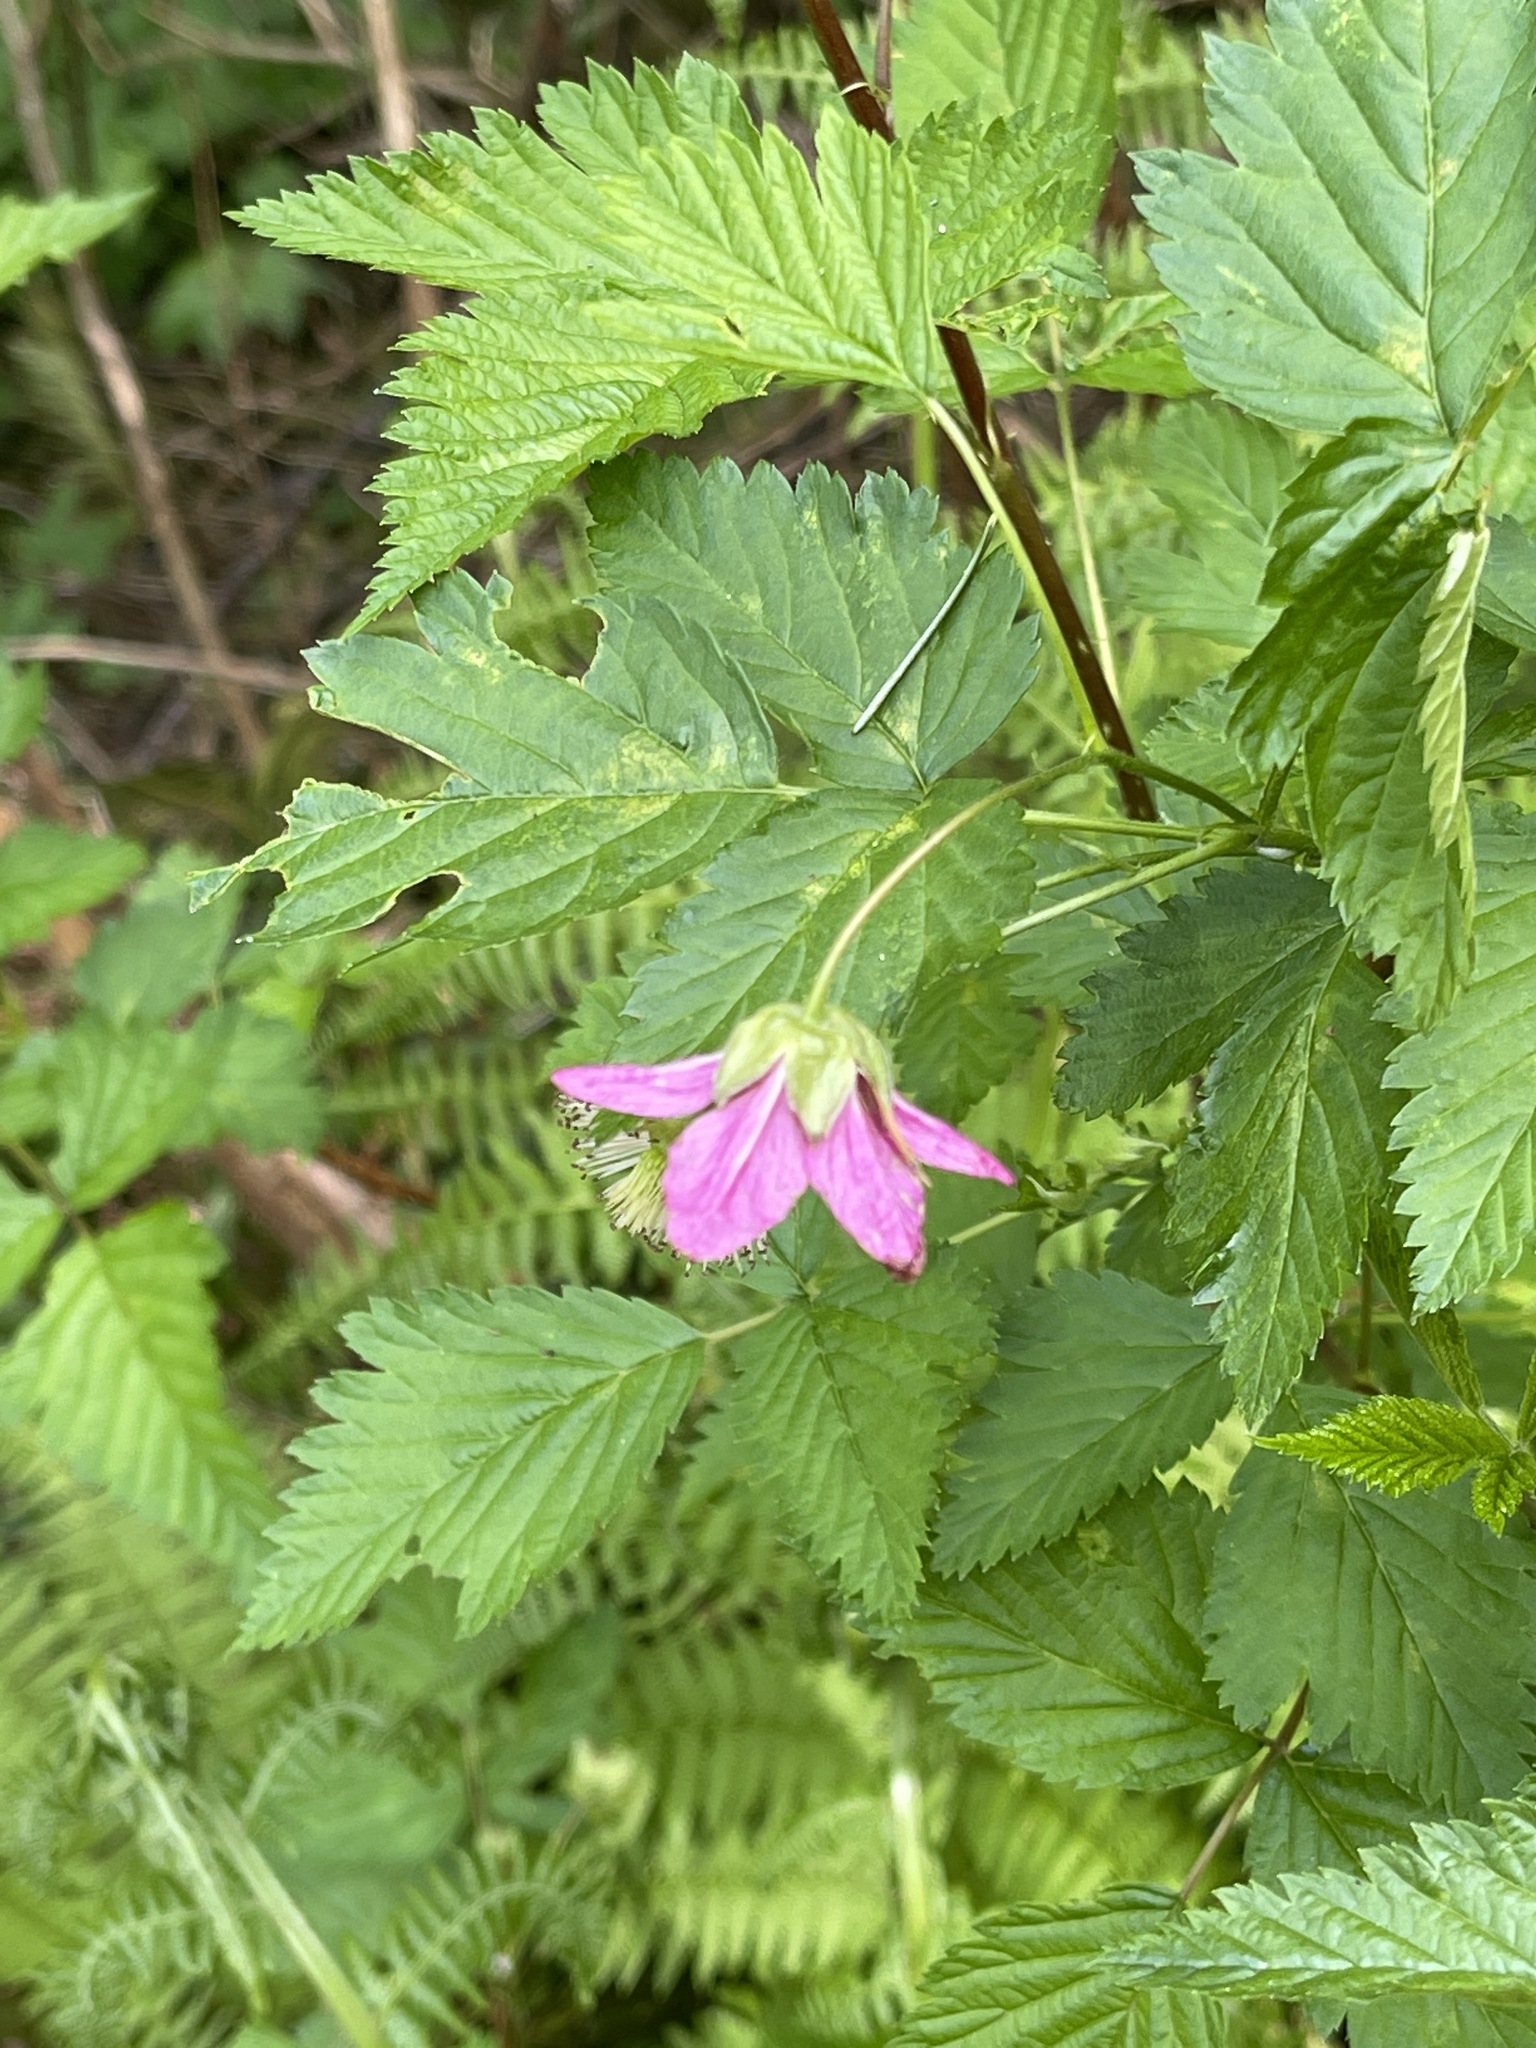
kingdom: Plantae
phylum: Tracheophyta
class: Magnoliopsida
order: Rosales
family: Rosaceae
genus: Rubus
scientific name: Rubus spectabilis
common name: Salmonberry
